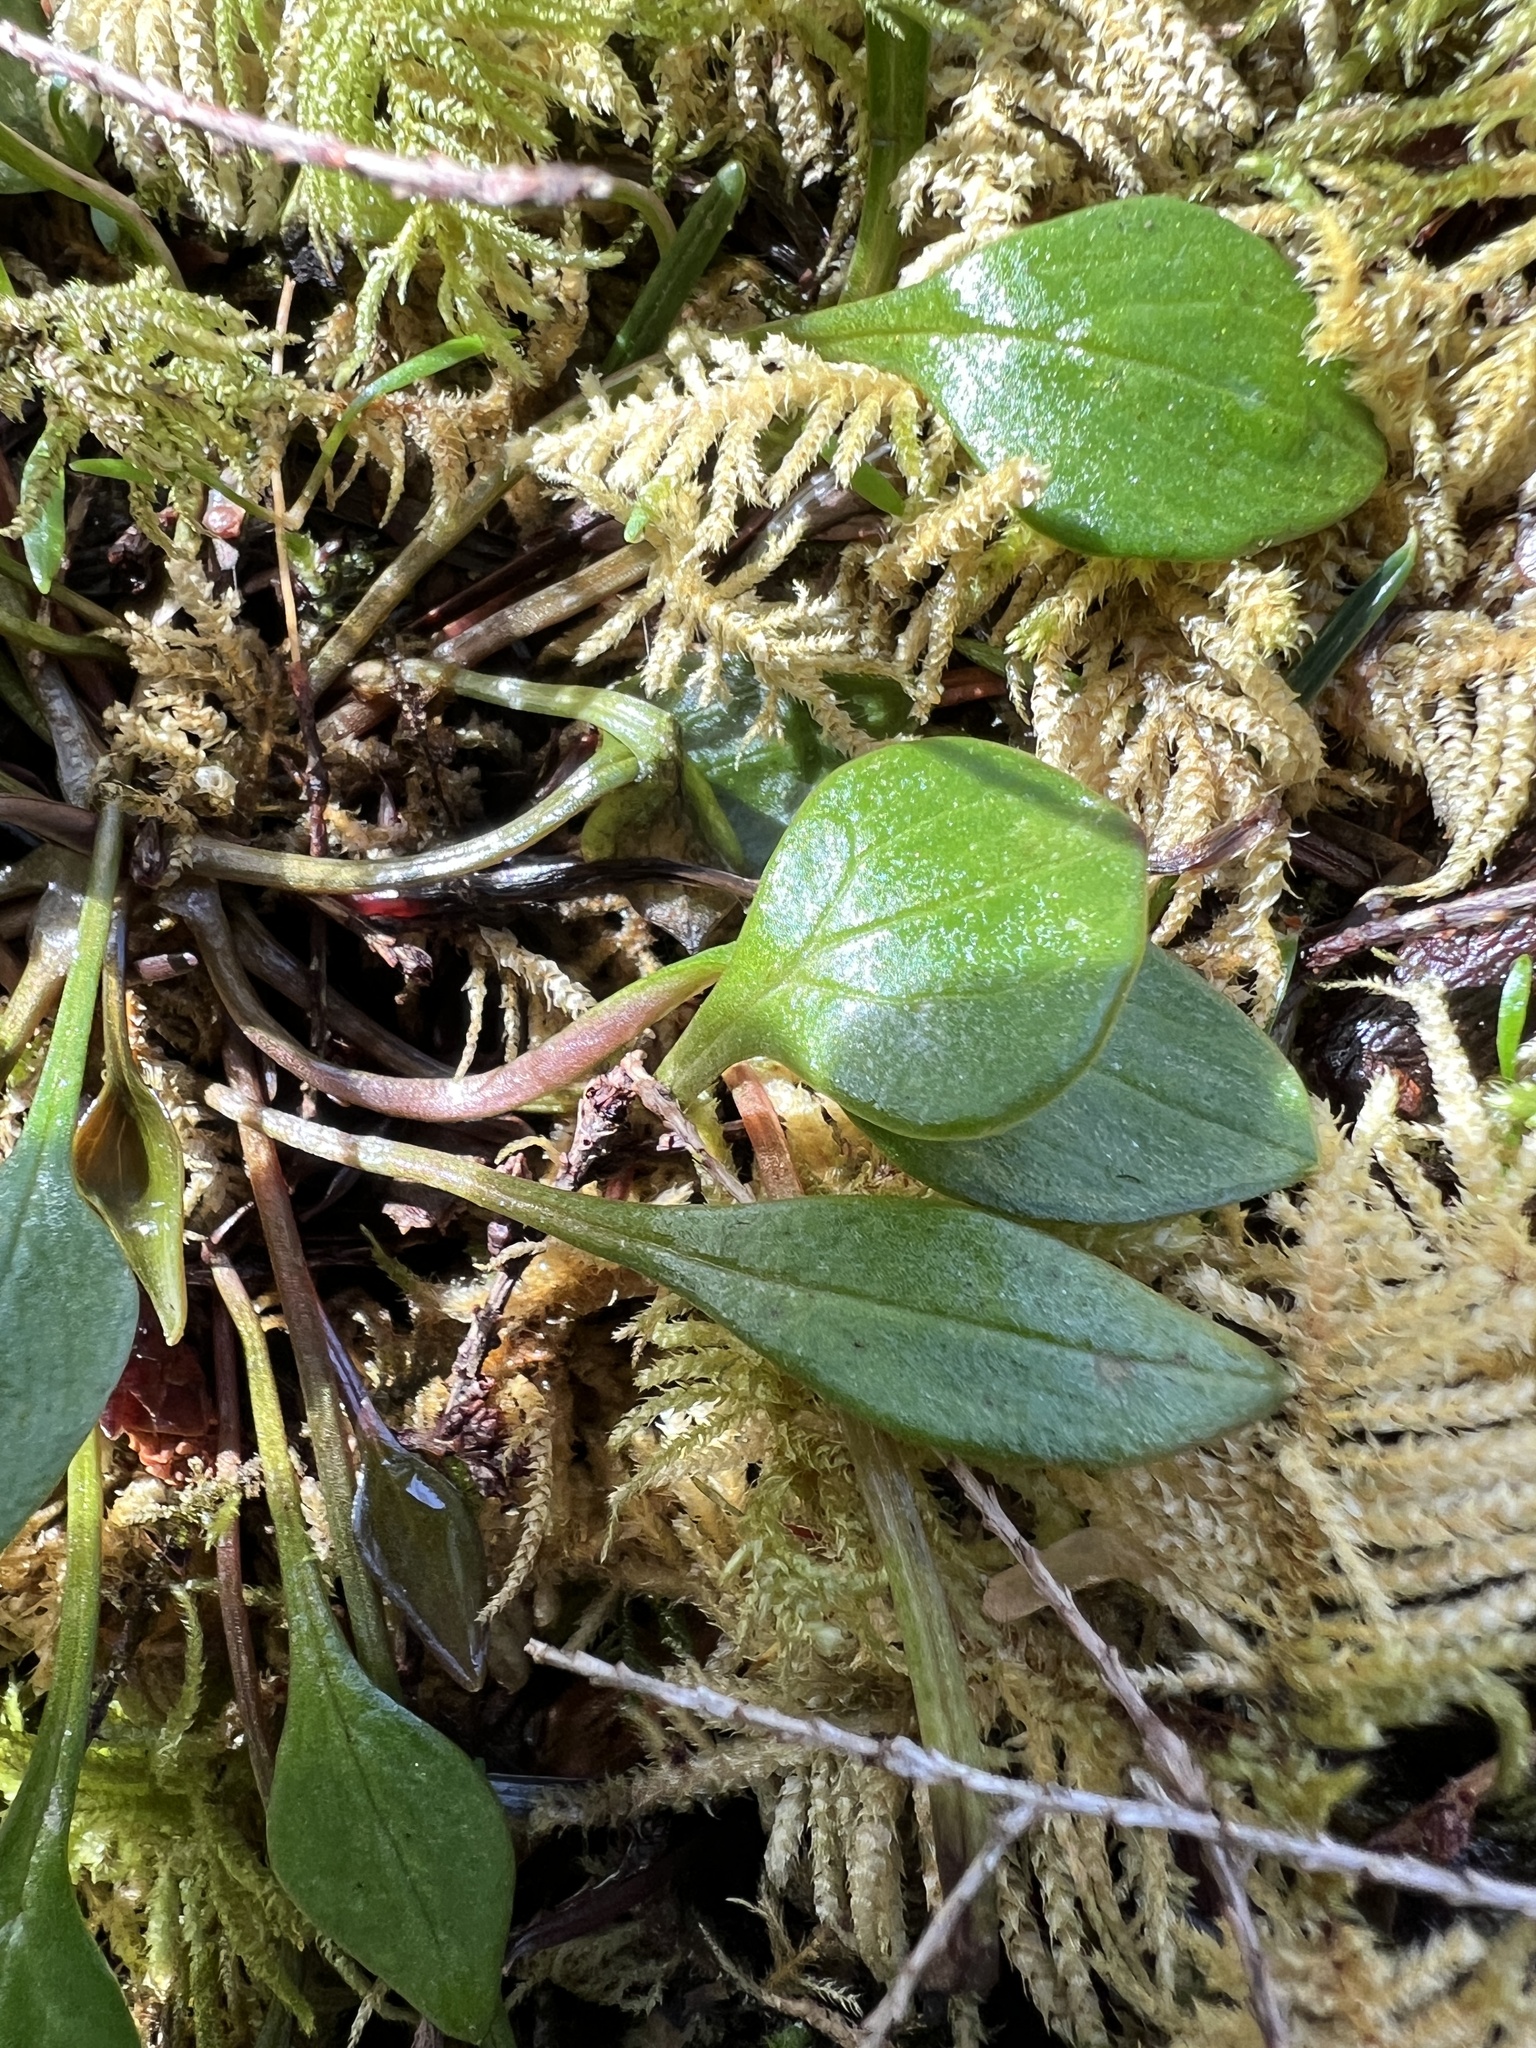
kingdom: Plantae
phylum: Tracheophyta
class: Magnoliopsida
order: Caryophyllales
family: Montiaceae
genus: Claytonia
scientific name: Claytonia sibirica
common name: Pink purslane
